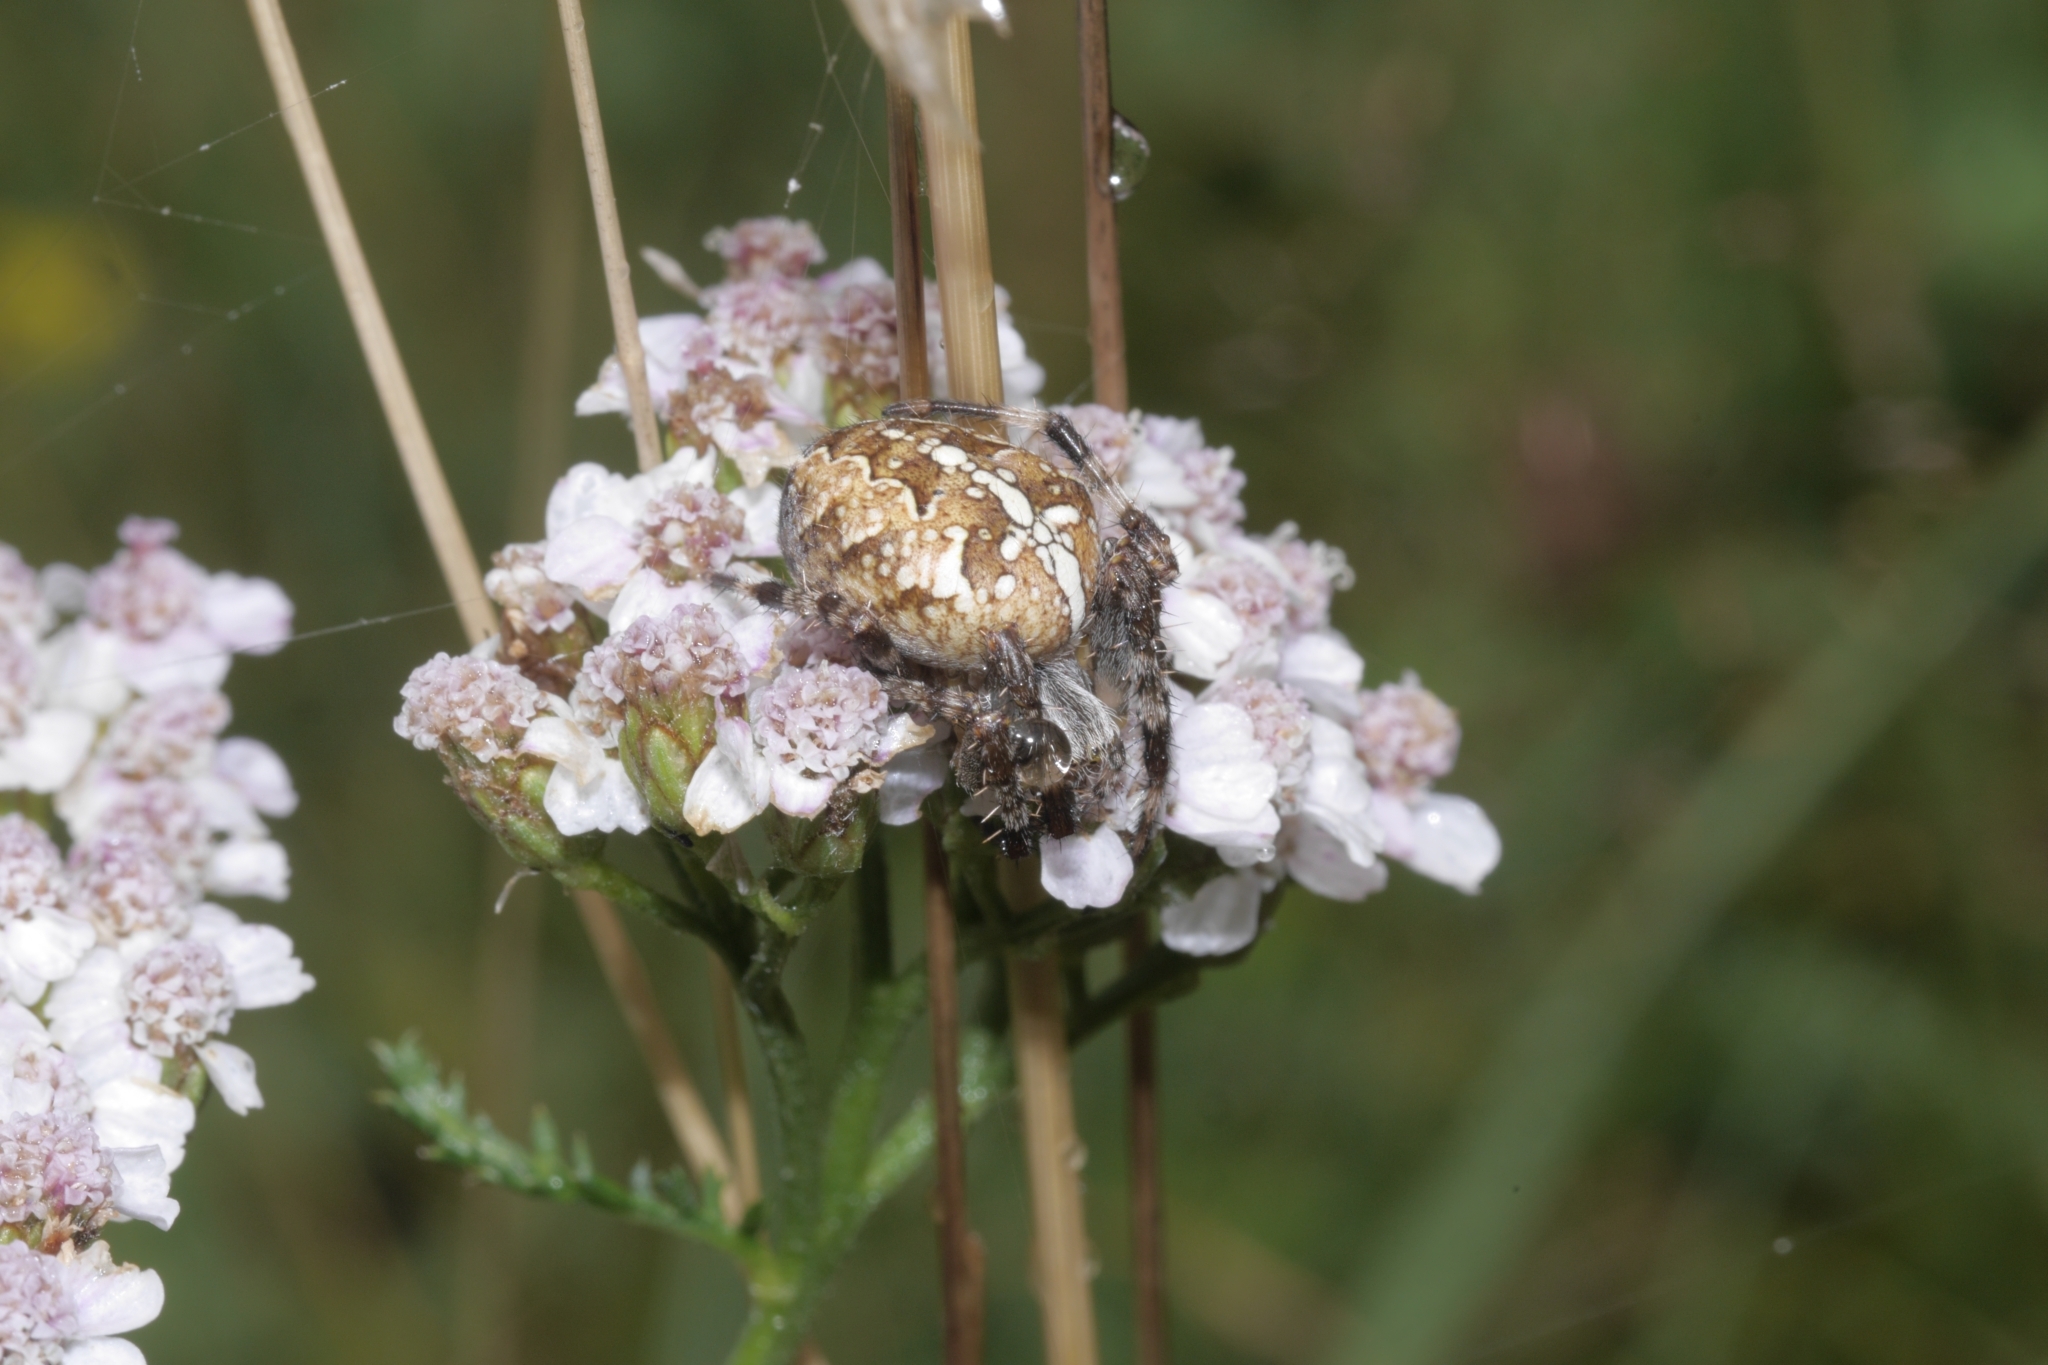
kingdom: Animalia
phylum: Arthropoda
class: Arachnida
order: Araneae
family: Araneidae
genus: Araneus
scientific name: Araneus diadematus
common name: Cross orbweaver
